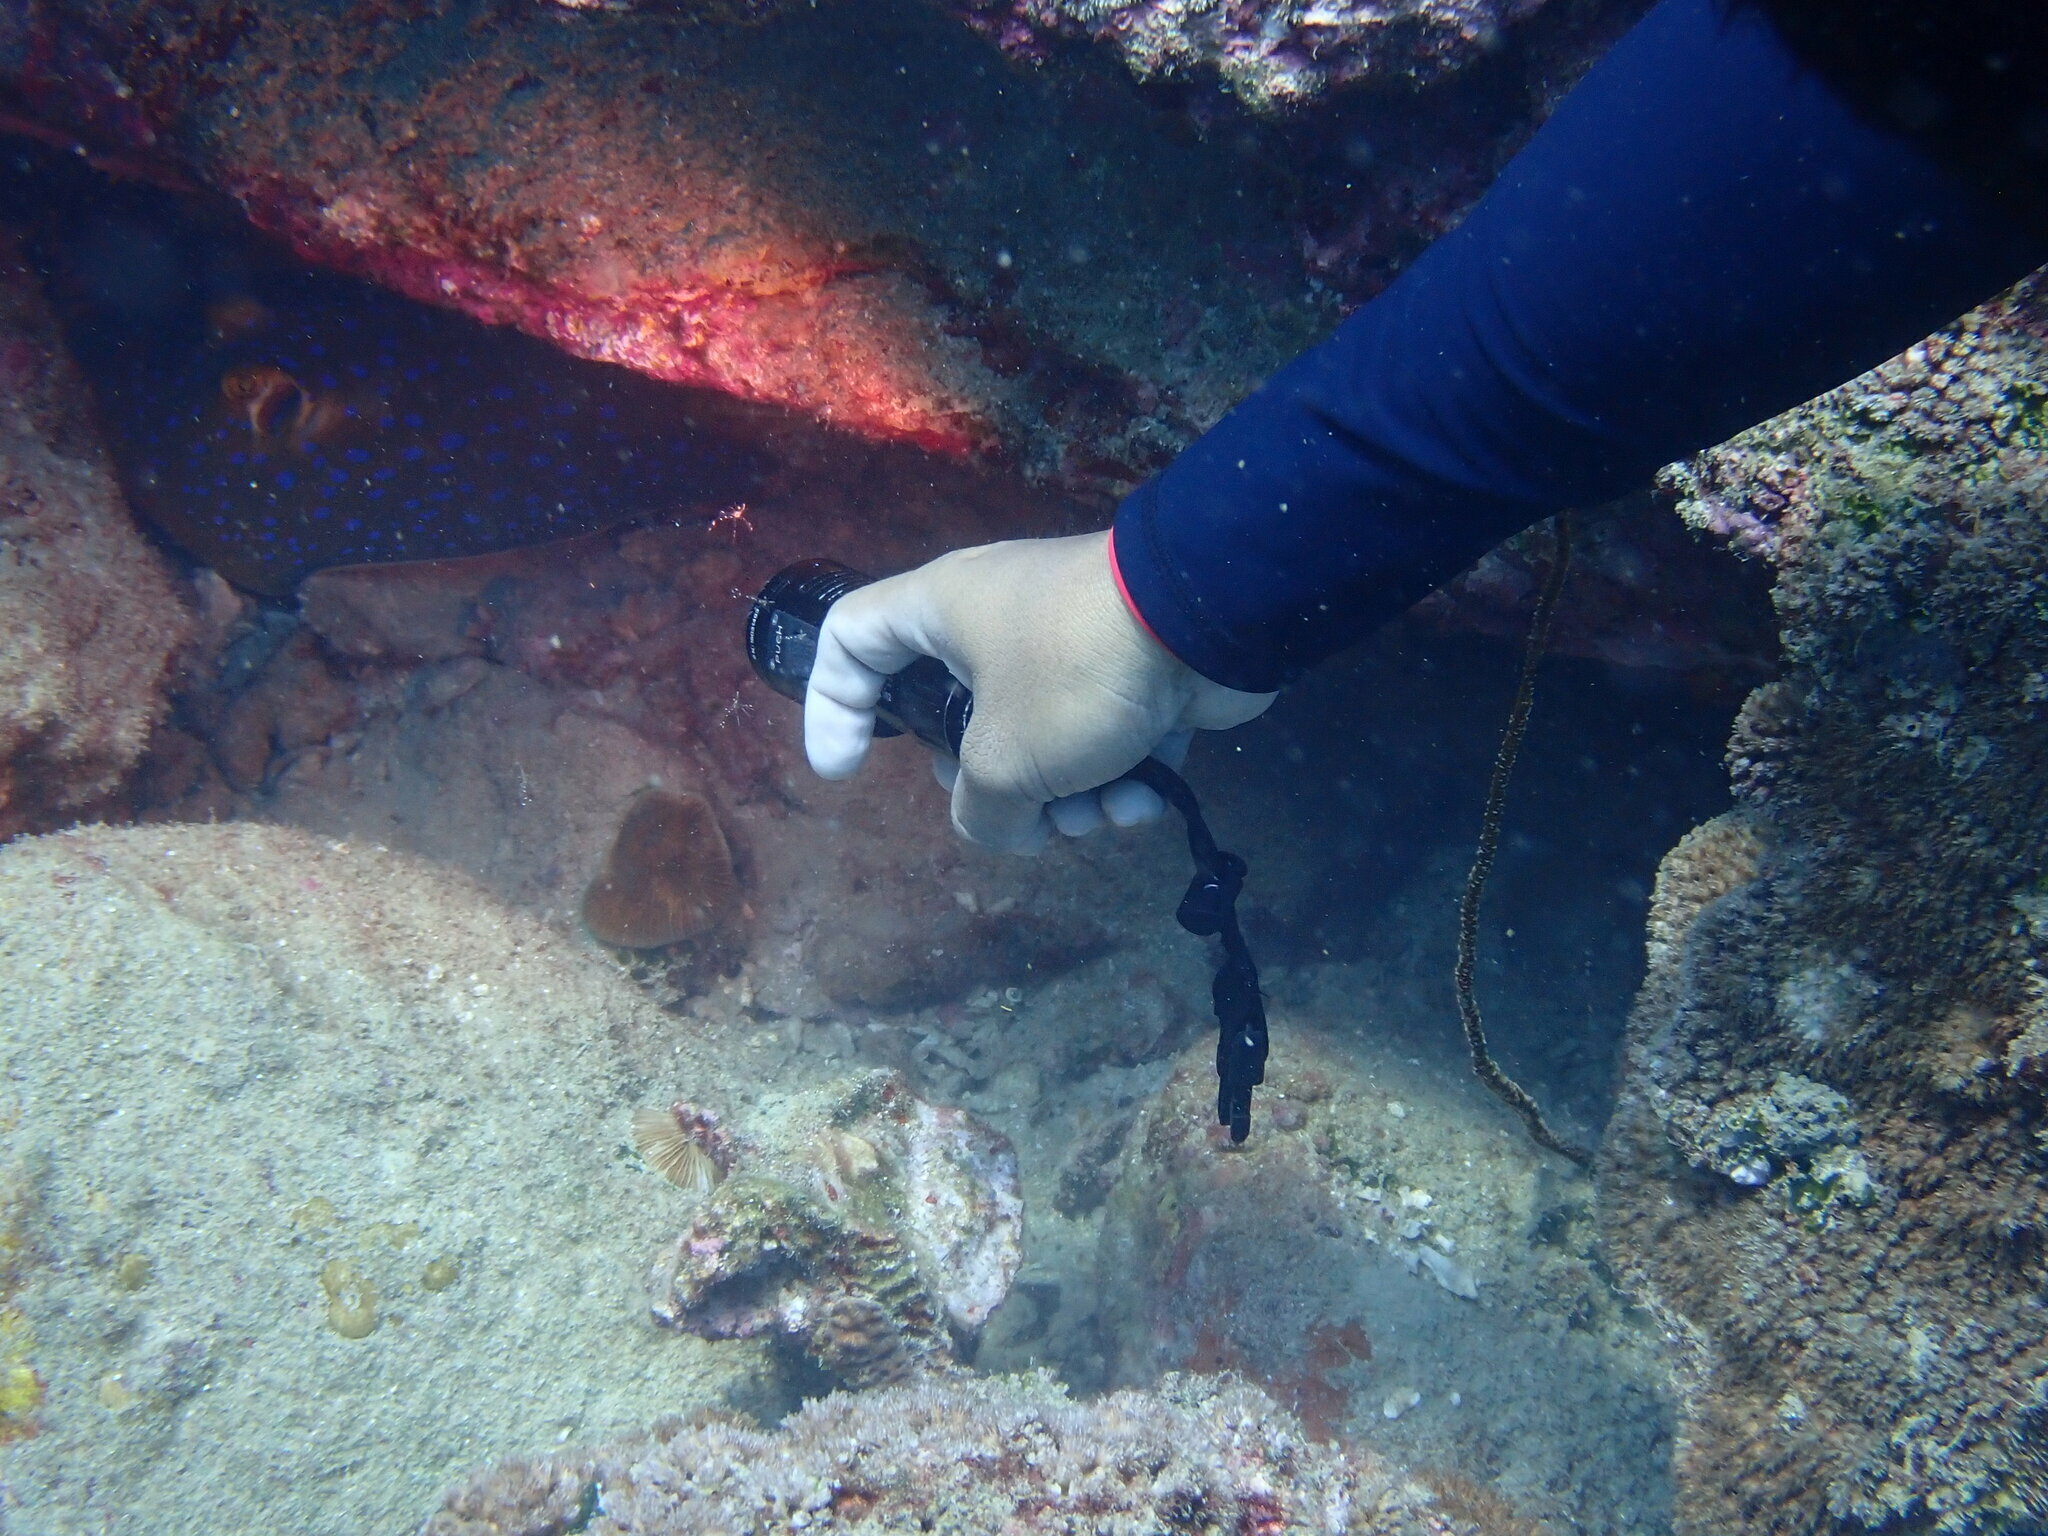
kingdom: Animalia
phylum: Chordata
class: Elasmobranchii
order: Myliobatiformes
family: Dasyatidae
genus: Taeniura
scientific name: Taeniura lymma
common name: Bluespotted ribbontail ray
